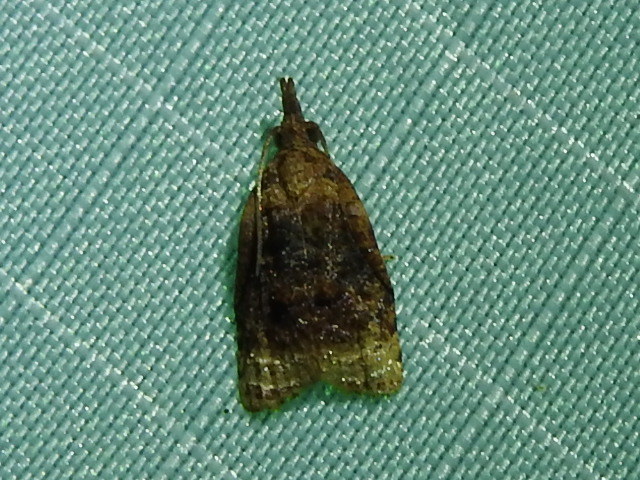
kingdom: Animalia
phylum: Arthropoda
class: Insecta
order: Lepidoptera
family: Tortricidae
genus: Platynota
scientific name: Platynota flavedana
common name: Black-shaded platynota moth
